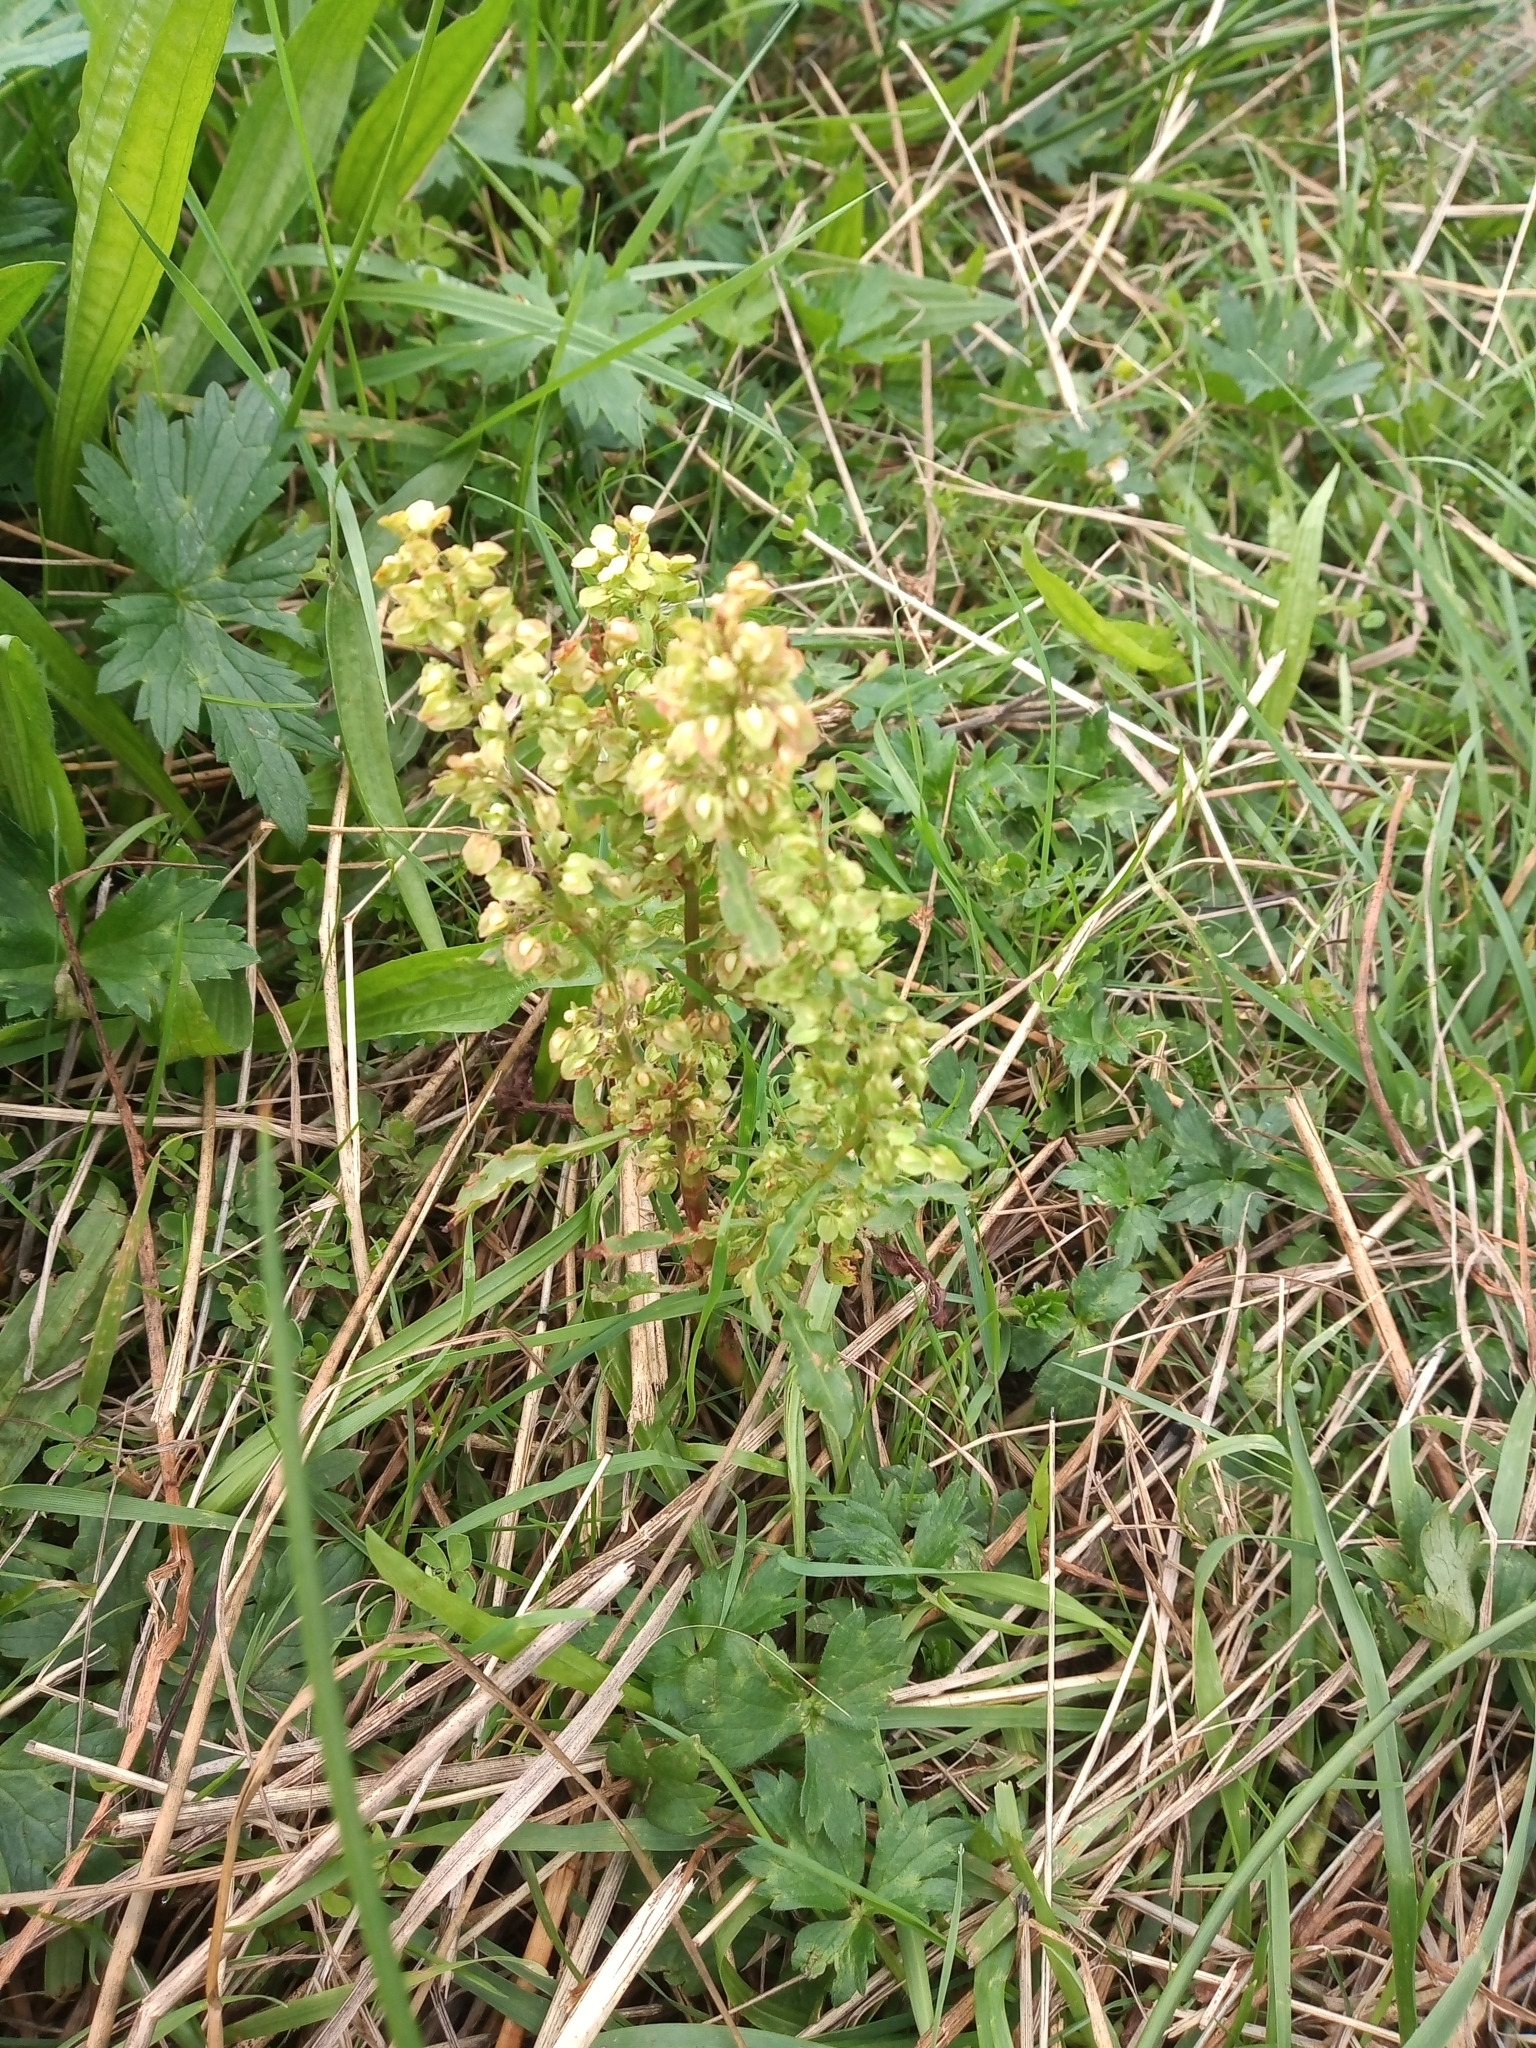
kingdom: Plantae
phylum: Tracheophyta
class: Magnoliopsida
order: Caryophyllales
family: Polygonaceae
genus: Rumex
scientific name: Rumex crispus
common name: Curled dock
